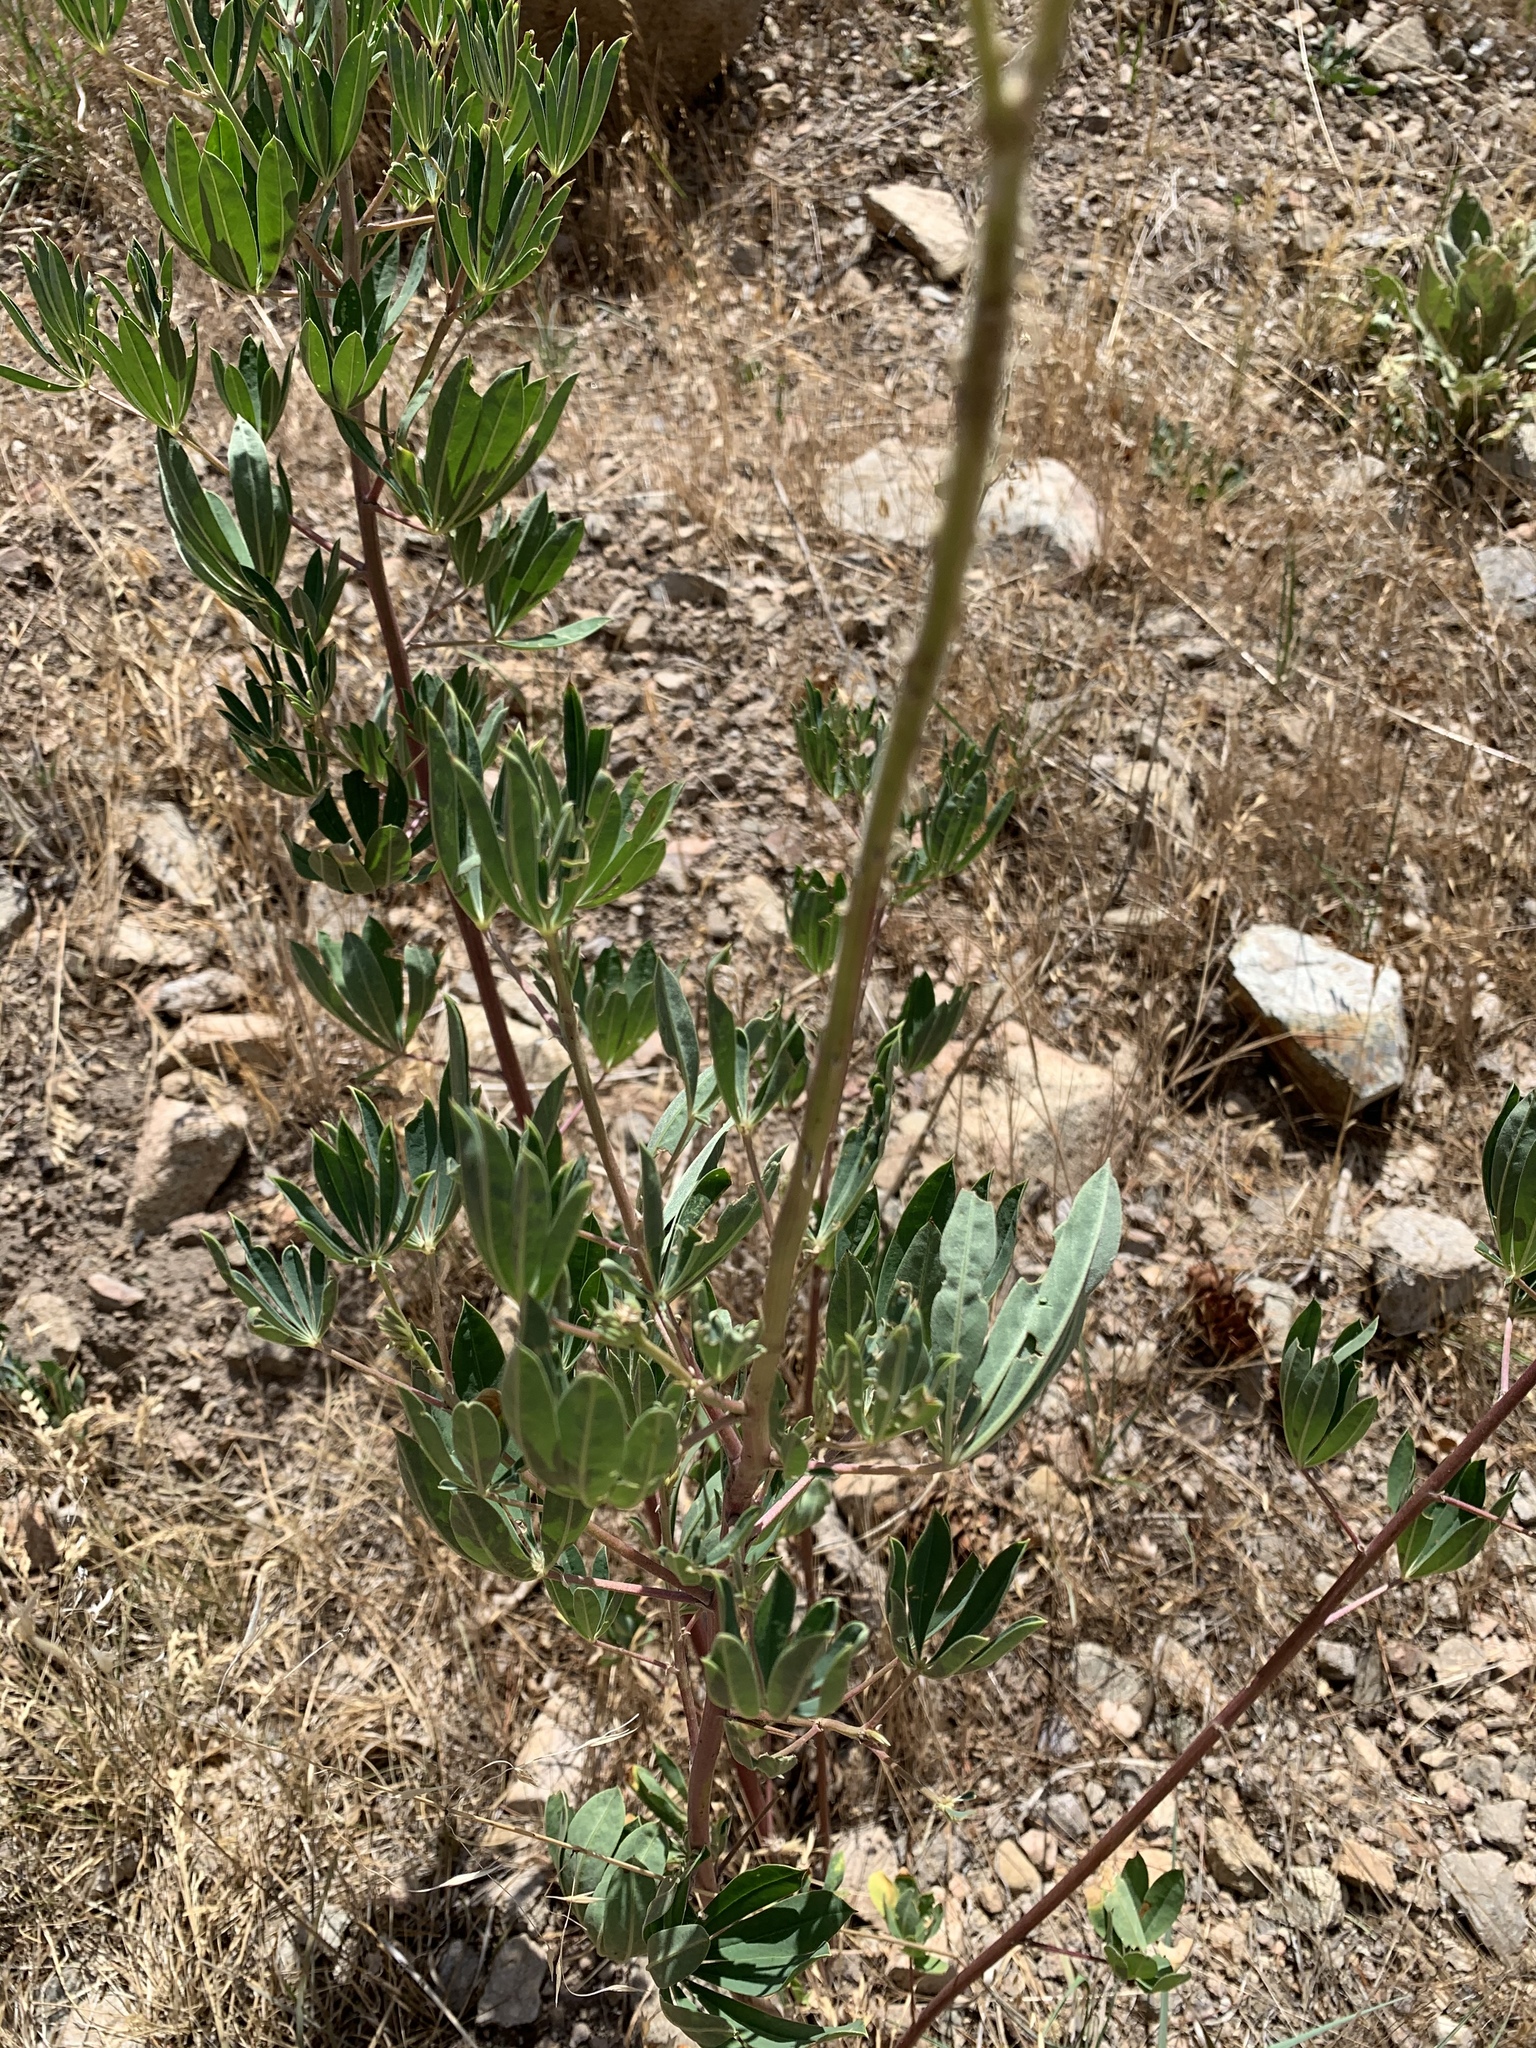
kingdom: Plantae
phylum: Tracheophyta
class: Magnoliopsida
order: Fabales
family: Fabaceae
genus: Lupinus
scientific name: Lupinus sierrae-blancae
